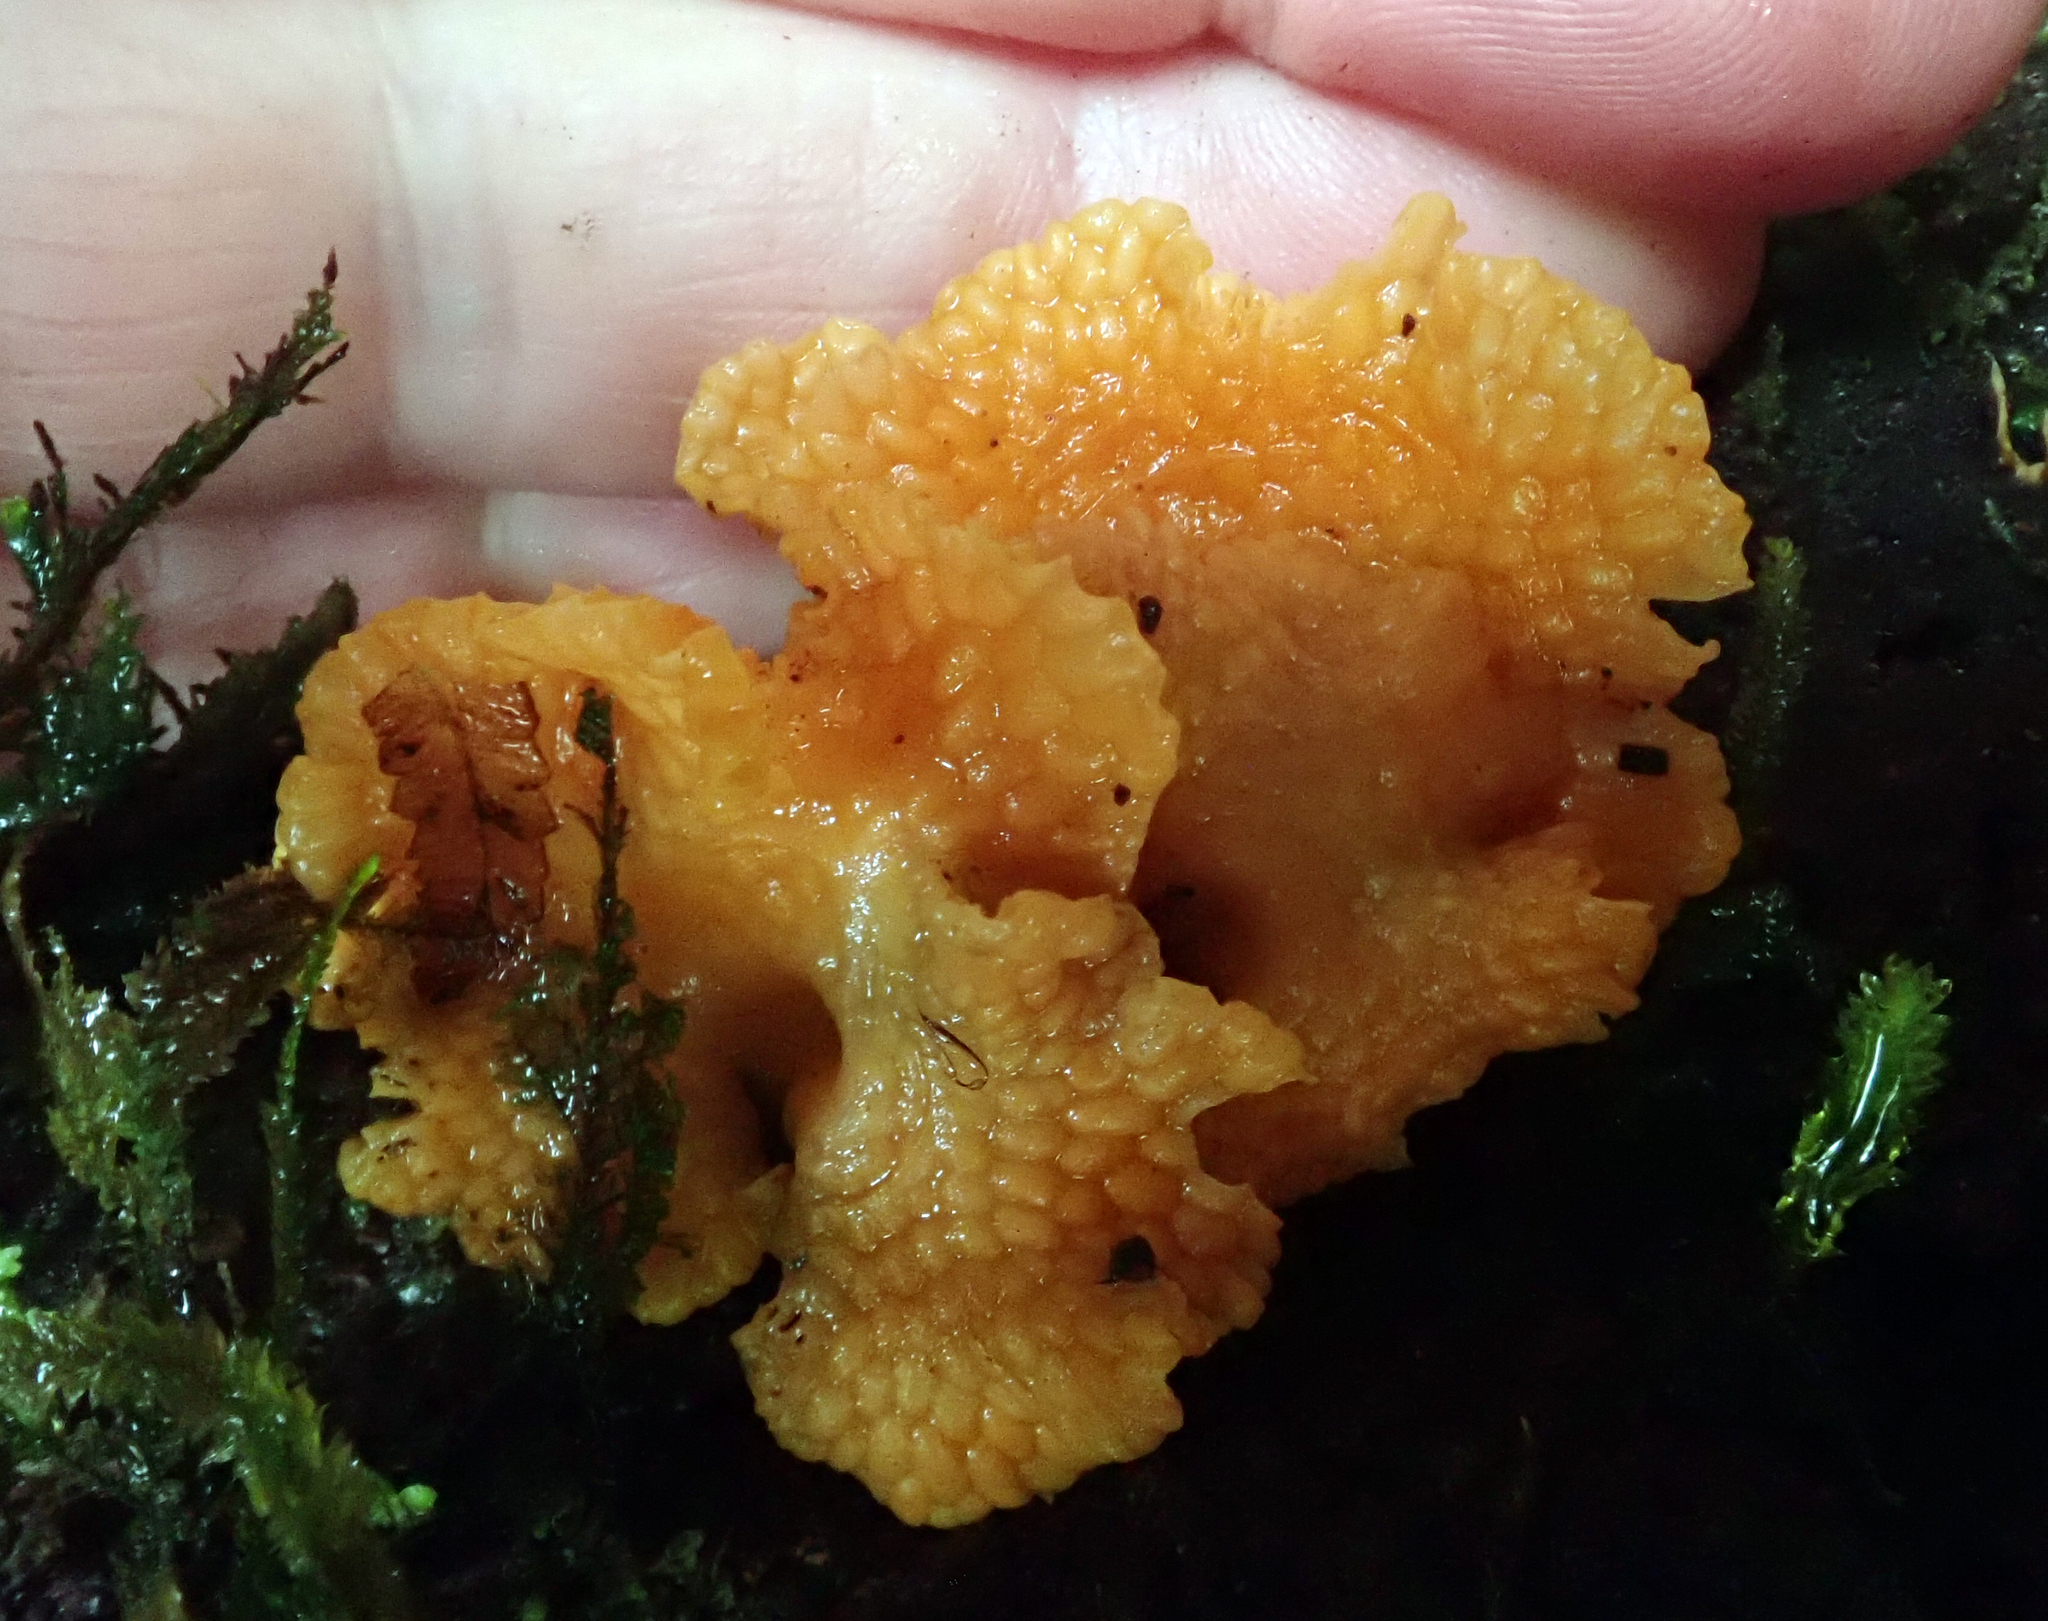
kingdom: Fungi
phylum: Basidiomycota
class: Agaricomycetes
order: Agaricales
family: Mycenaceae
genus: Favolaschia
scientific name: Favolaschia claudopus
